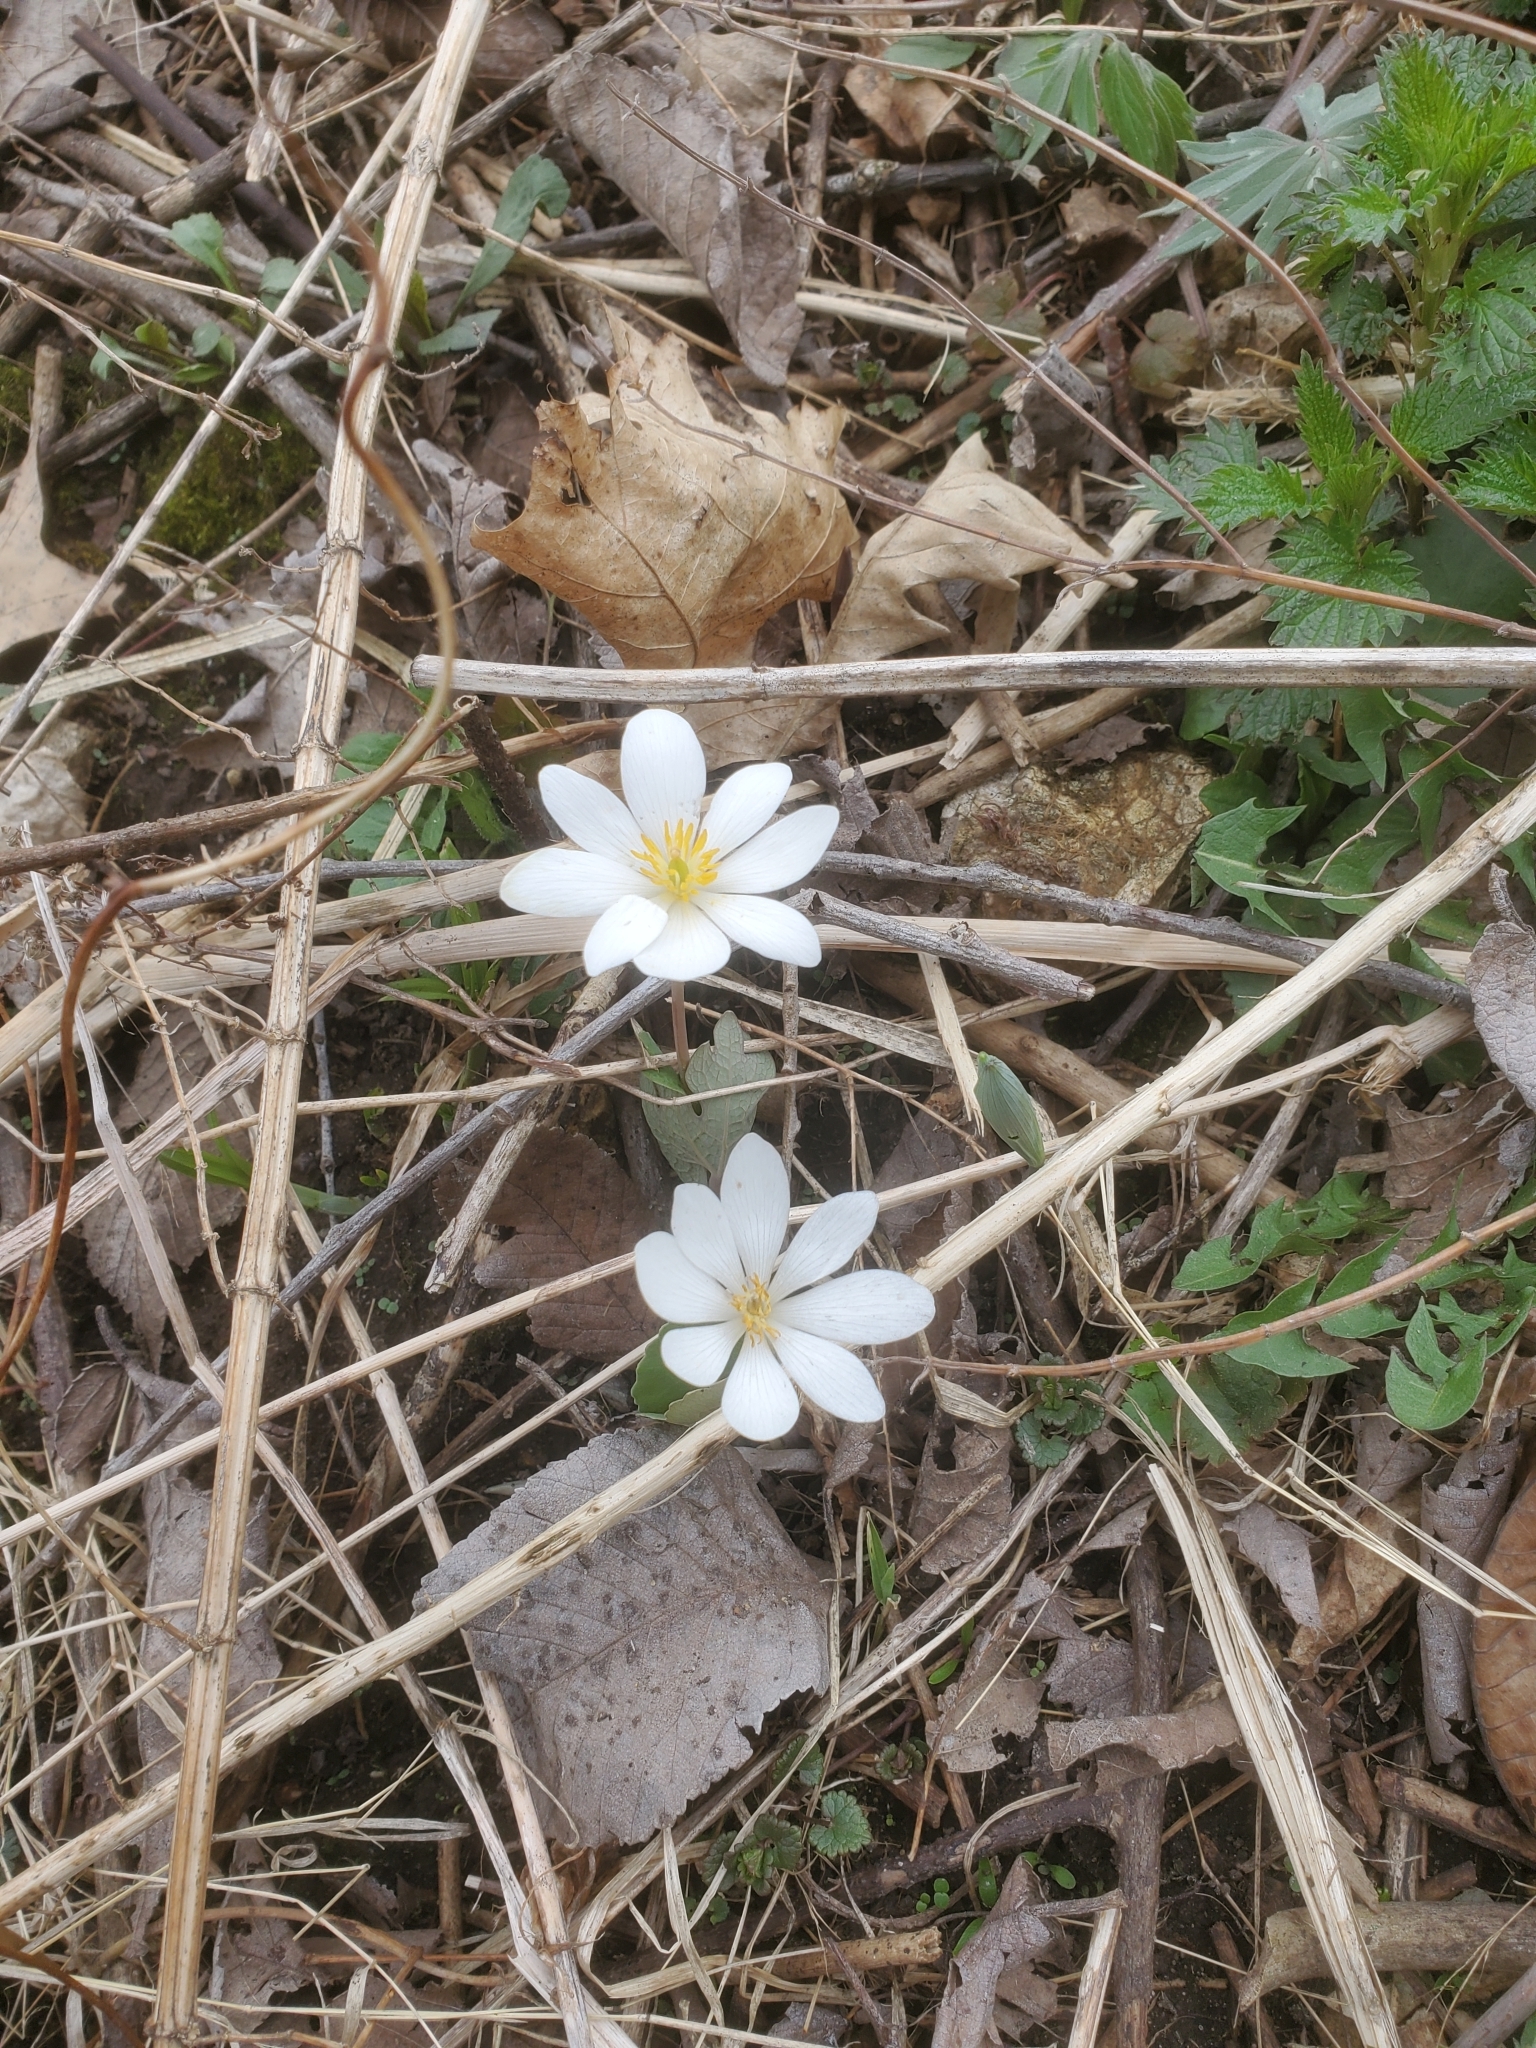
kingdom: Plantae
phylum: Tracheophyta
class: Magnoliopsida
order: Ranunculales
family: Papaveraceae
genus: Sanguinaria
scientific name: Sanguinaria canadensis
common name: Bloodroot
